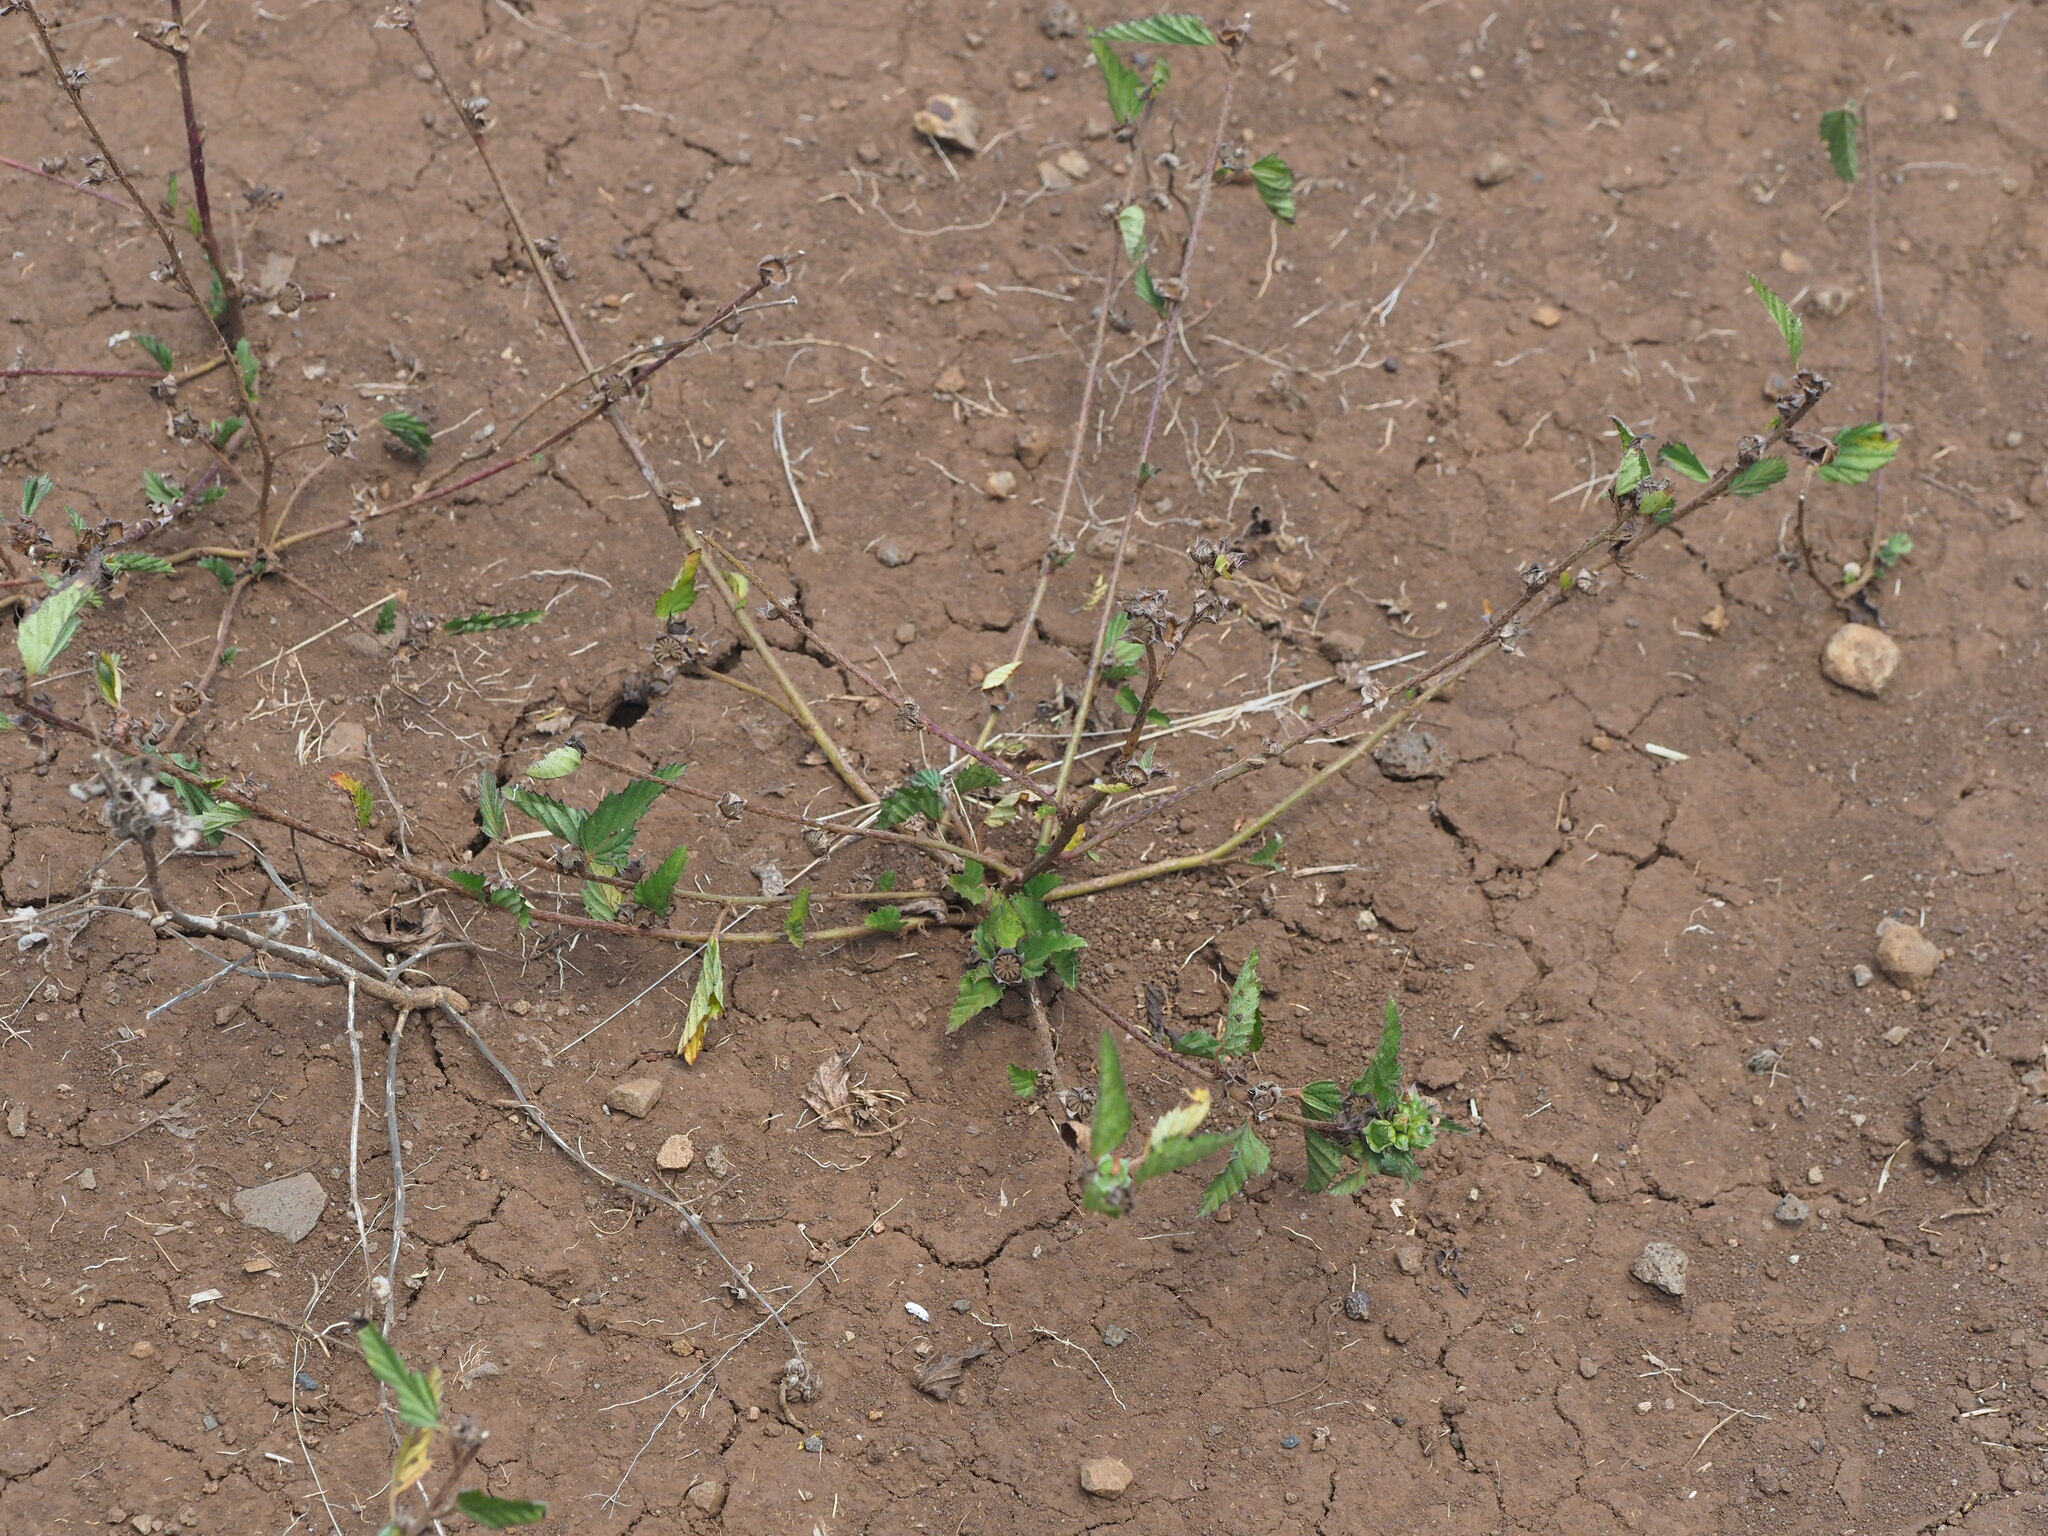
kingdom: Plantae
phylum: Tracheophyta
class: Magnoliopsida
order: Malvales
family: Malvaceae
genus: Malvastrum
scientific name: Malvastrum coromandelianum
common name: Threelobe false mallow
